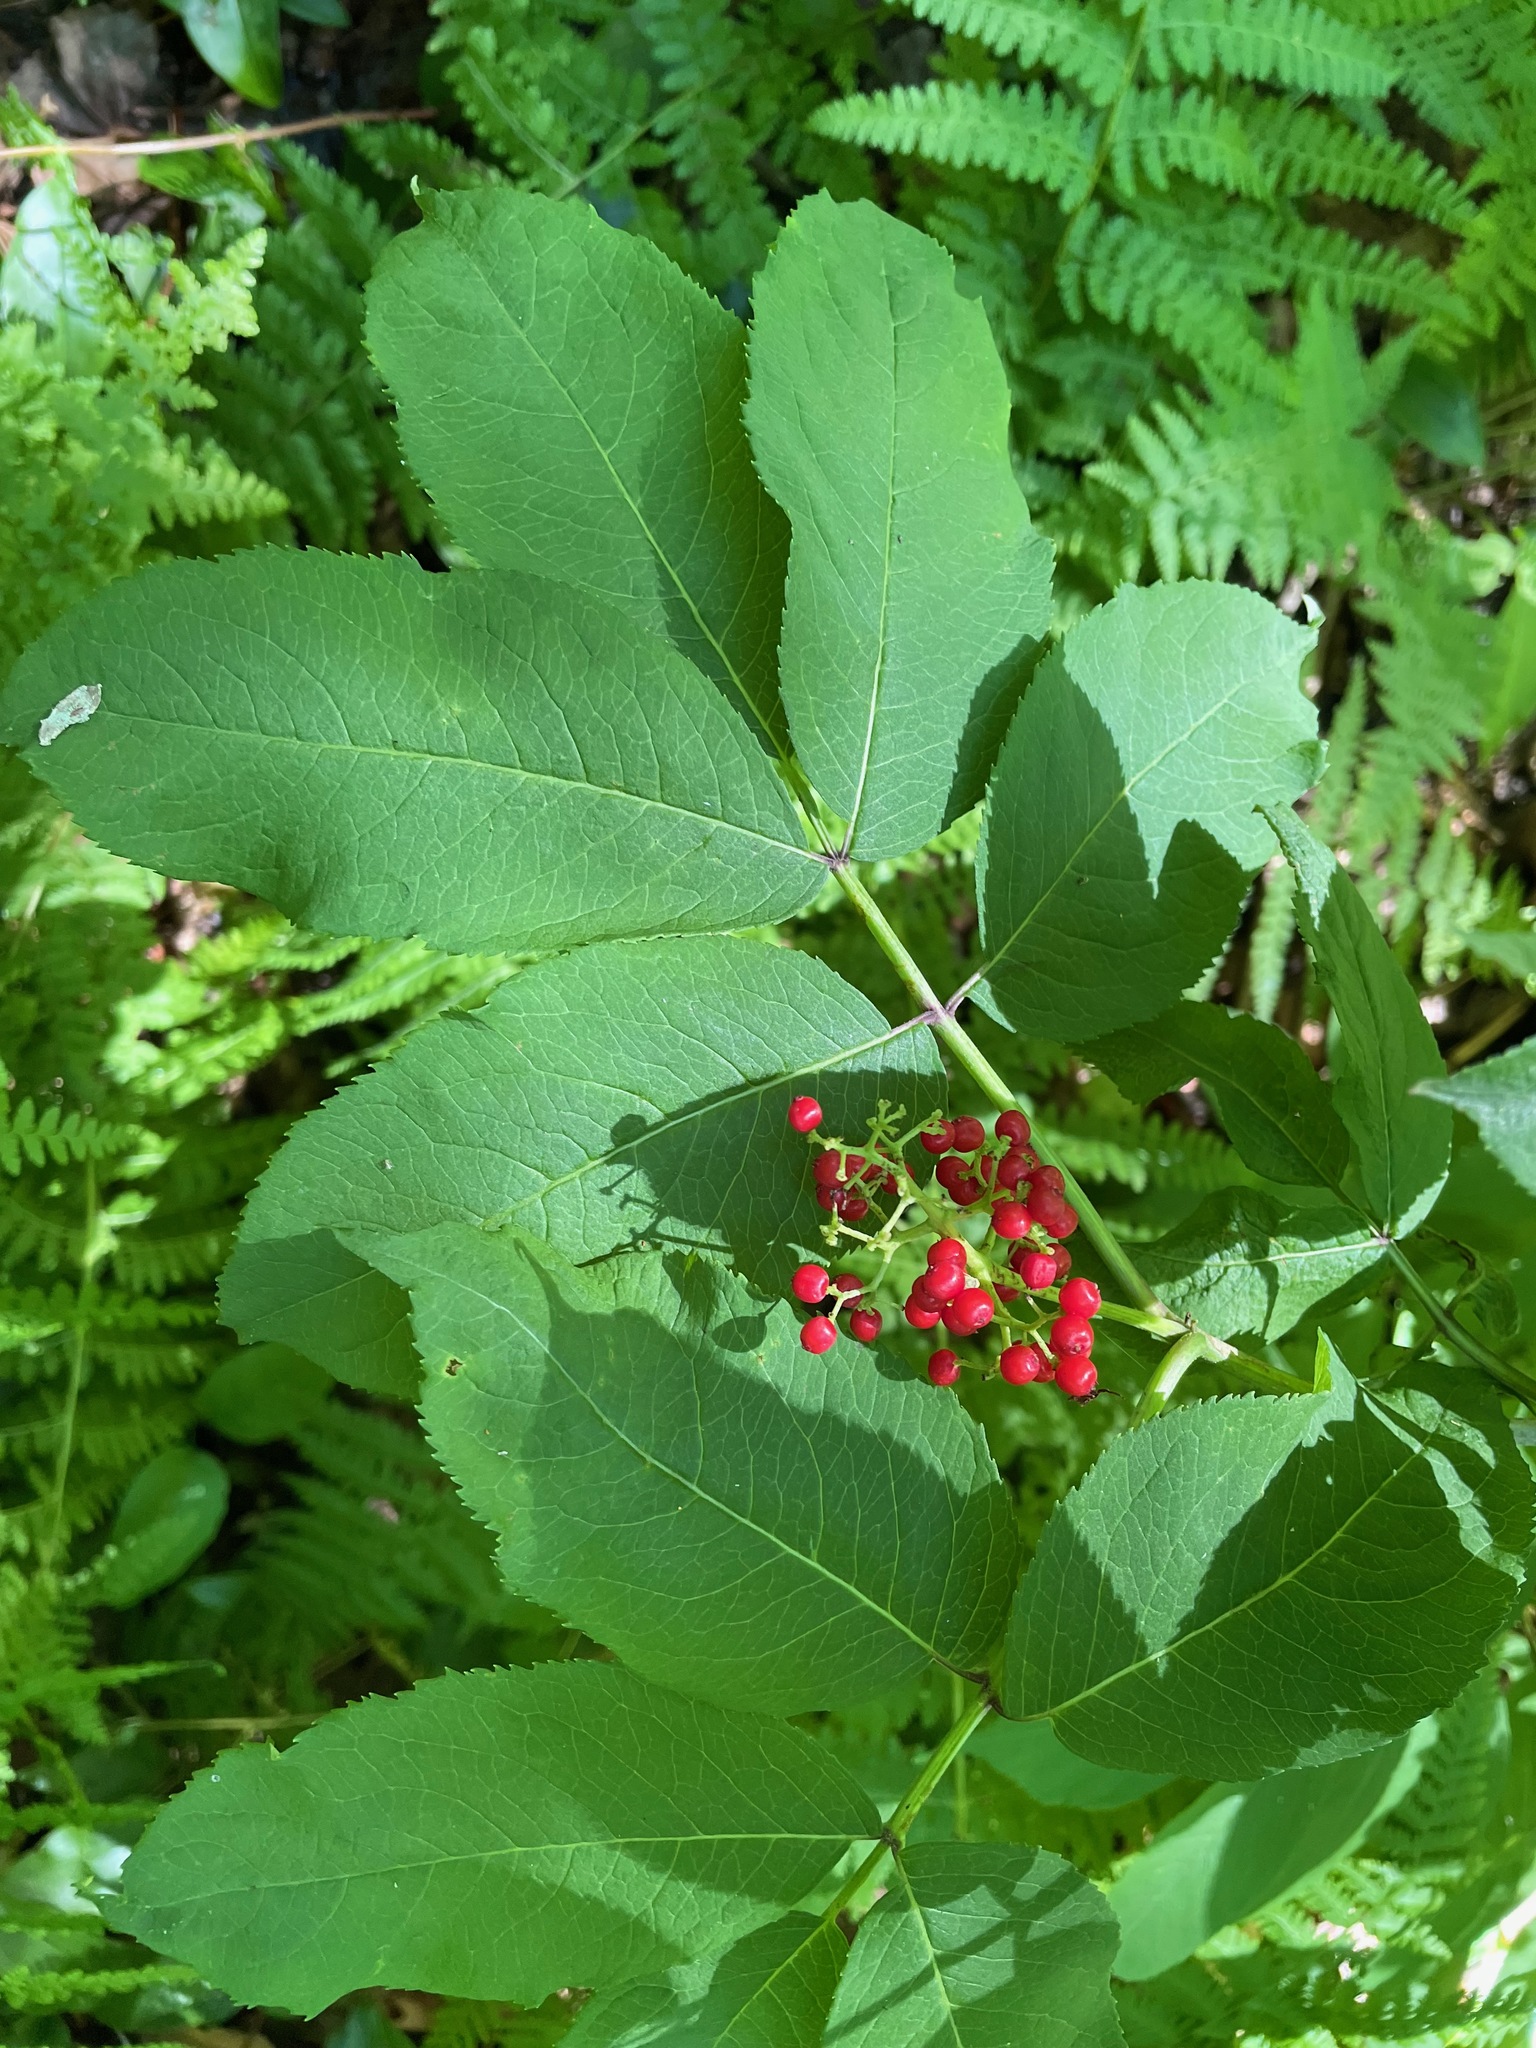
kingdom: Plantae
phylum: Tracheophyta
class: Magnoliopsida
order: Dipsacales
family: Viburnaceae
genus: Sambucus
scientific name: Sambucus racemosa
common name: Red-berried elder
